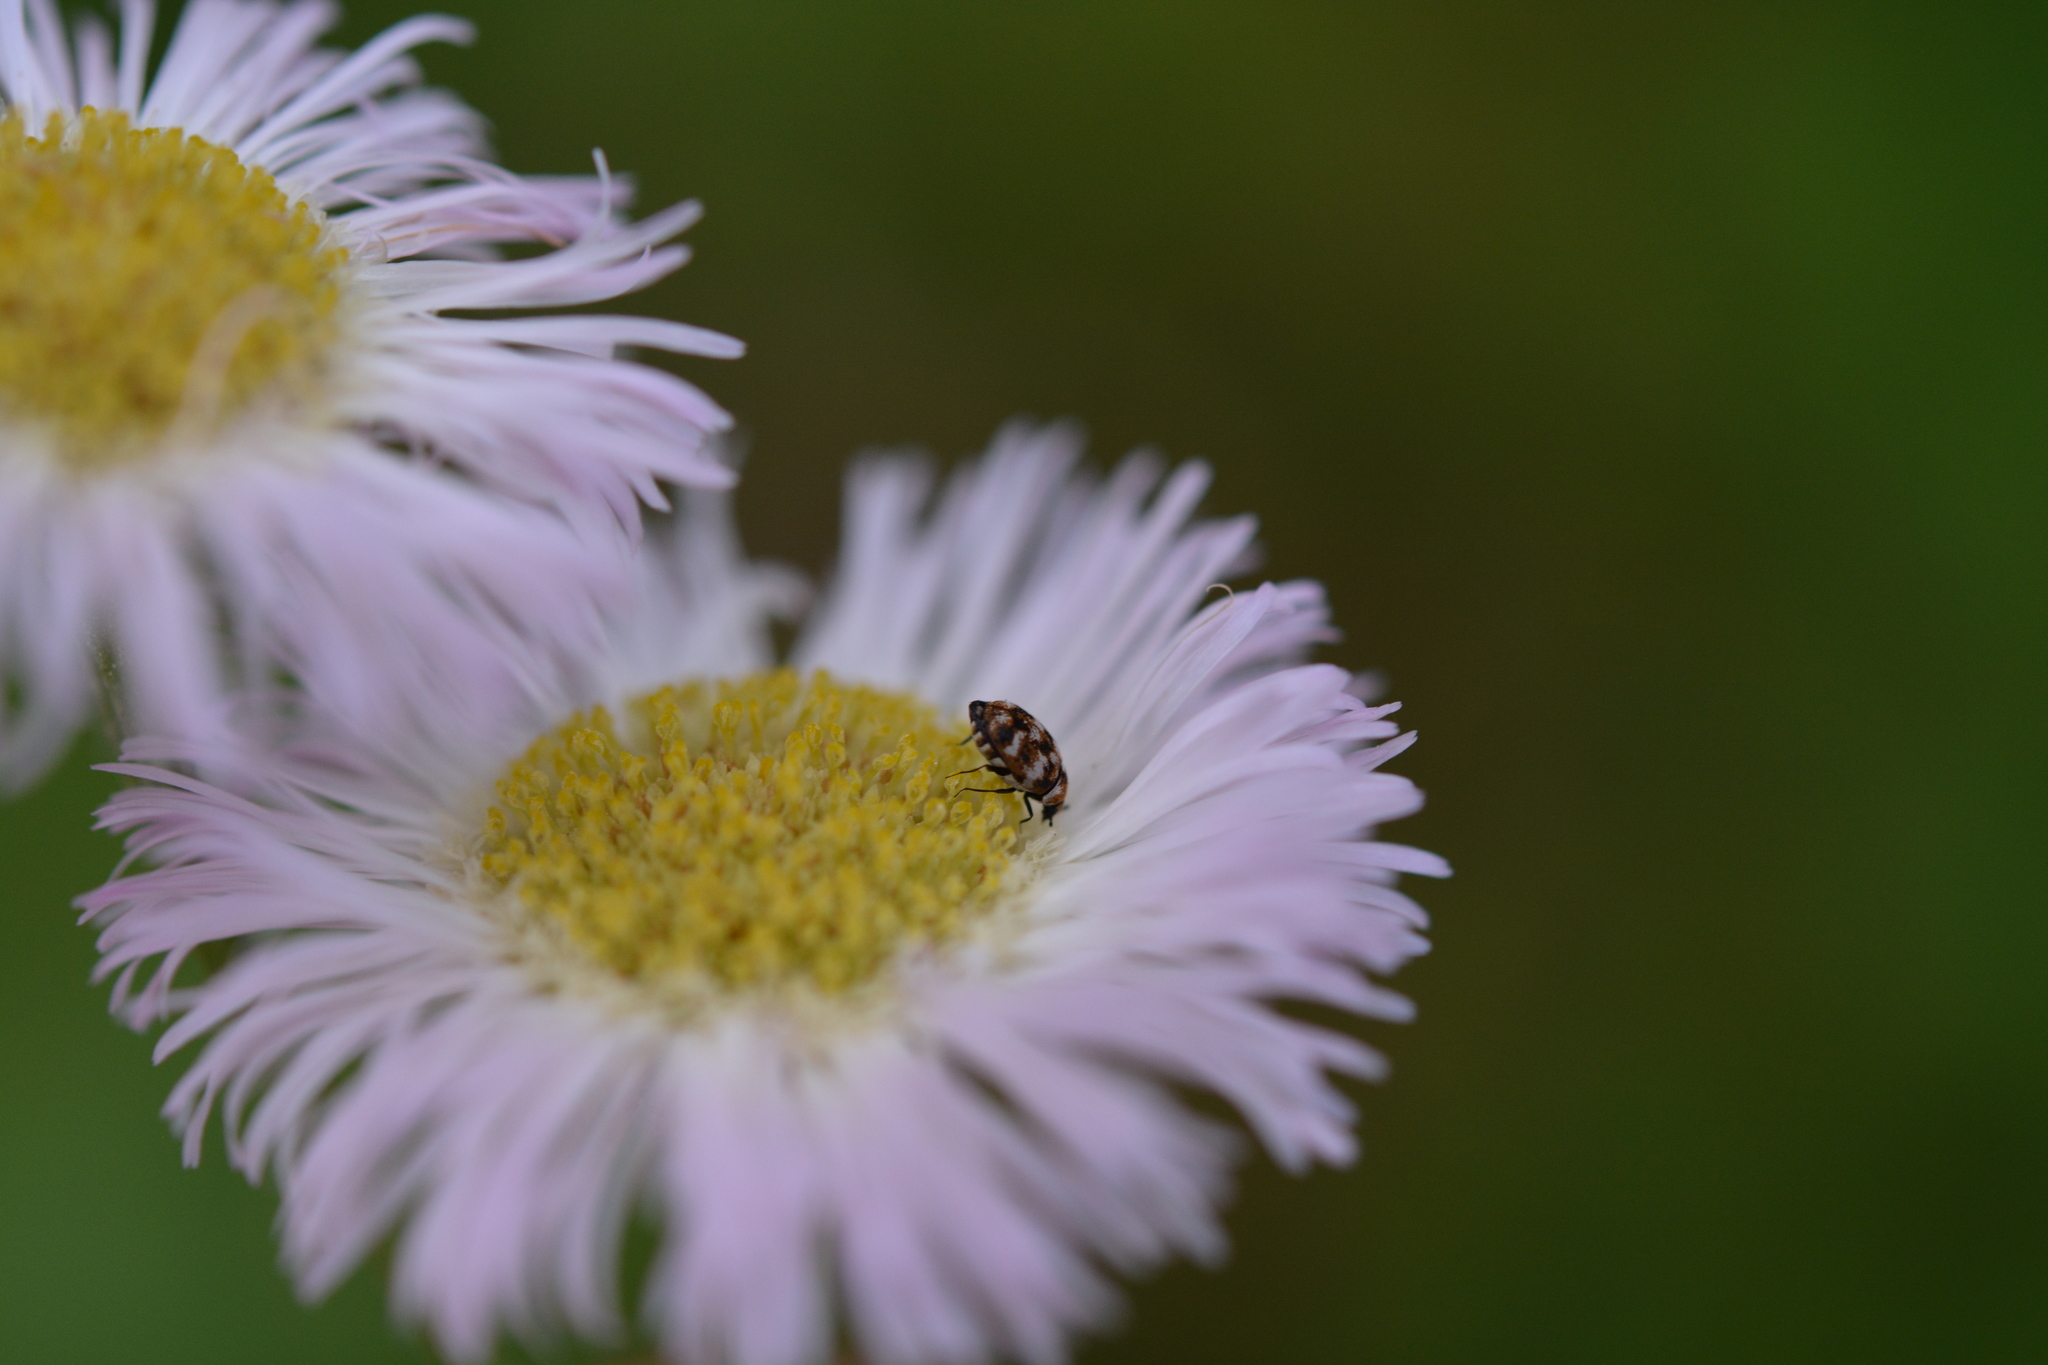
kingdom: Animalia
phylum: Arthropoda
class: Insecta
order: Coleoptera
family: Dermestidae
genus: Anthrenus
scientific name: Anthrenus verbasci
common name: Varied carpet beetle
